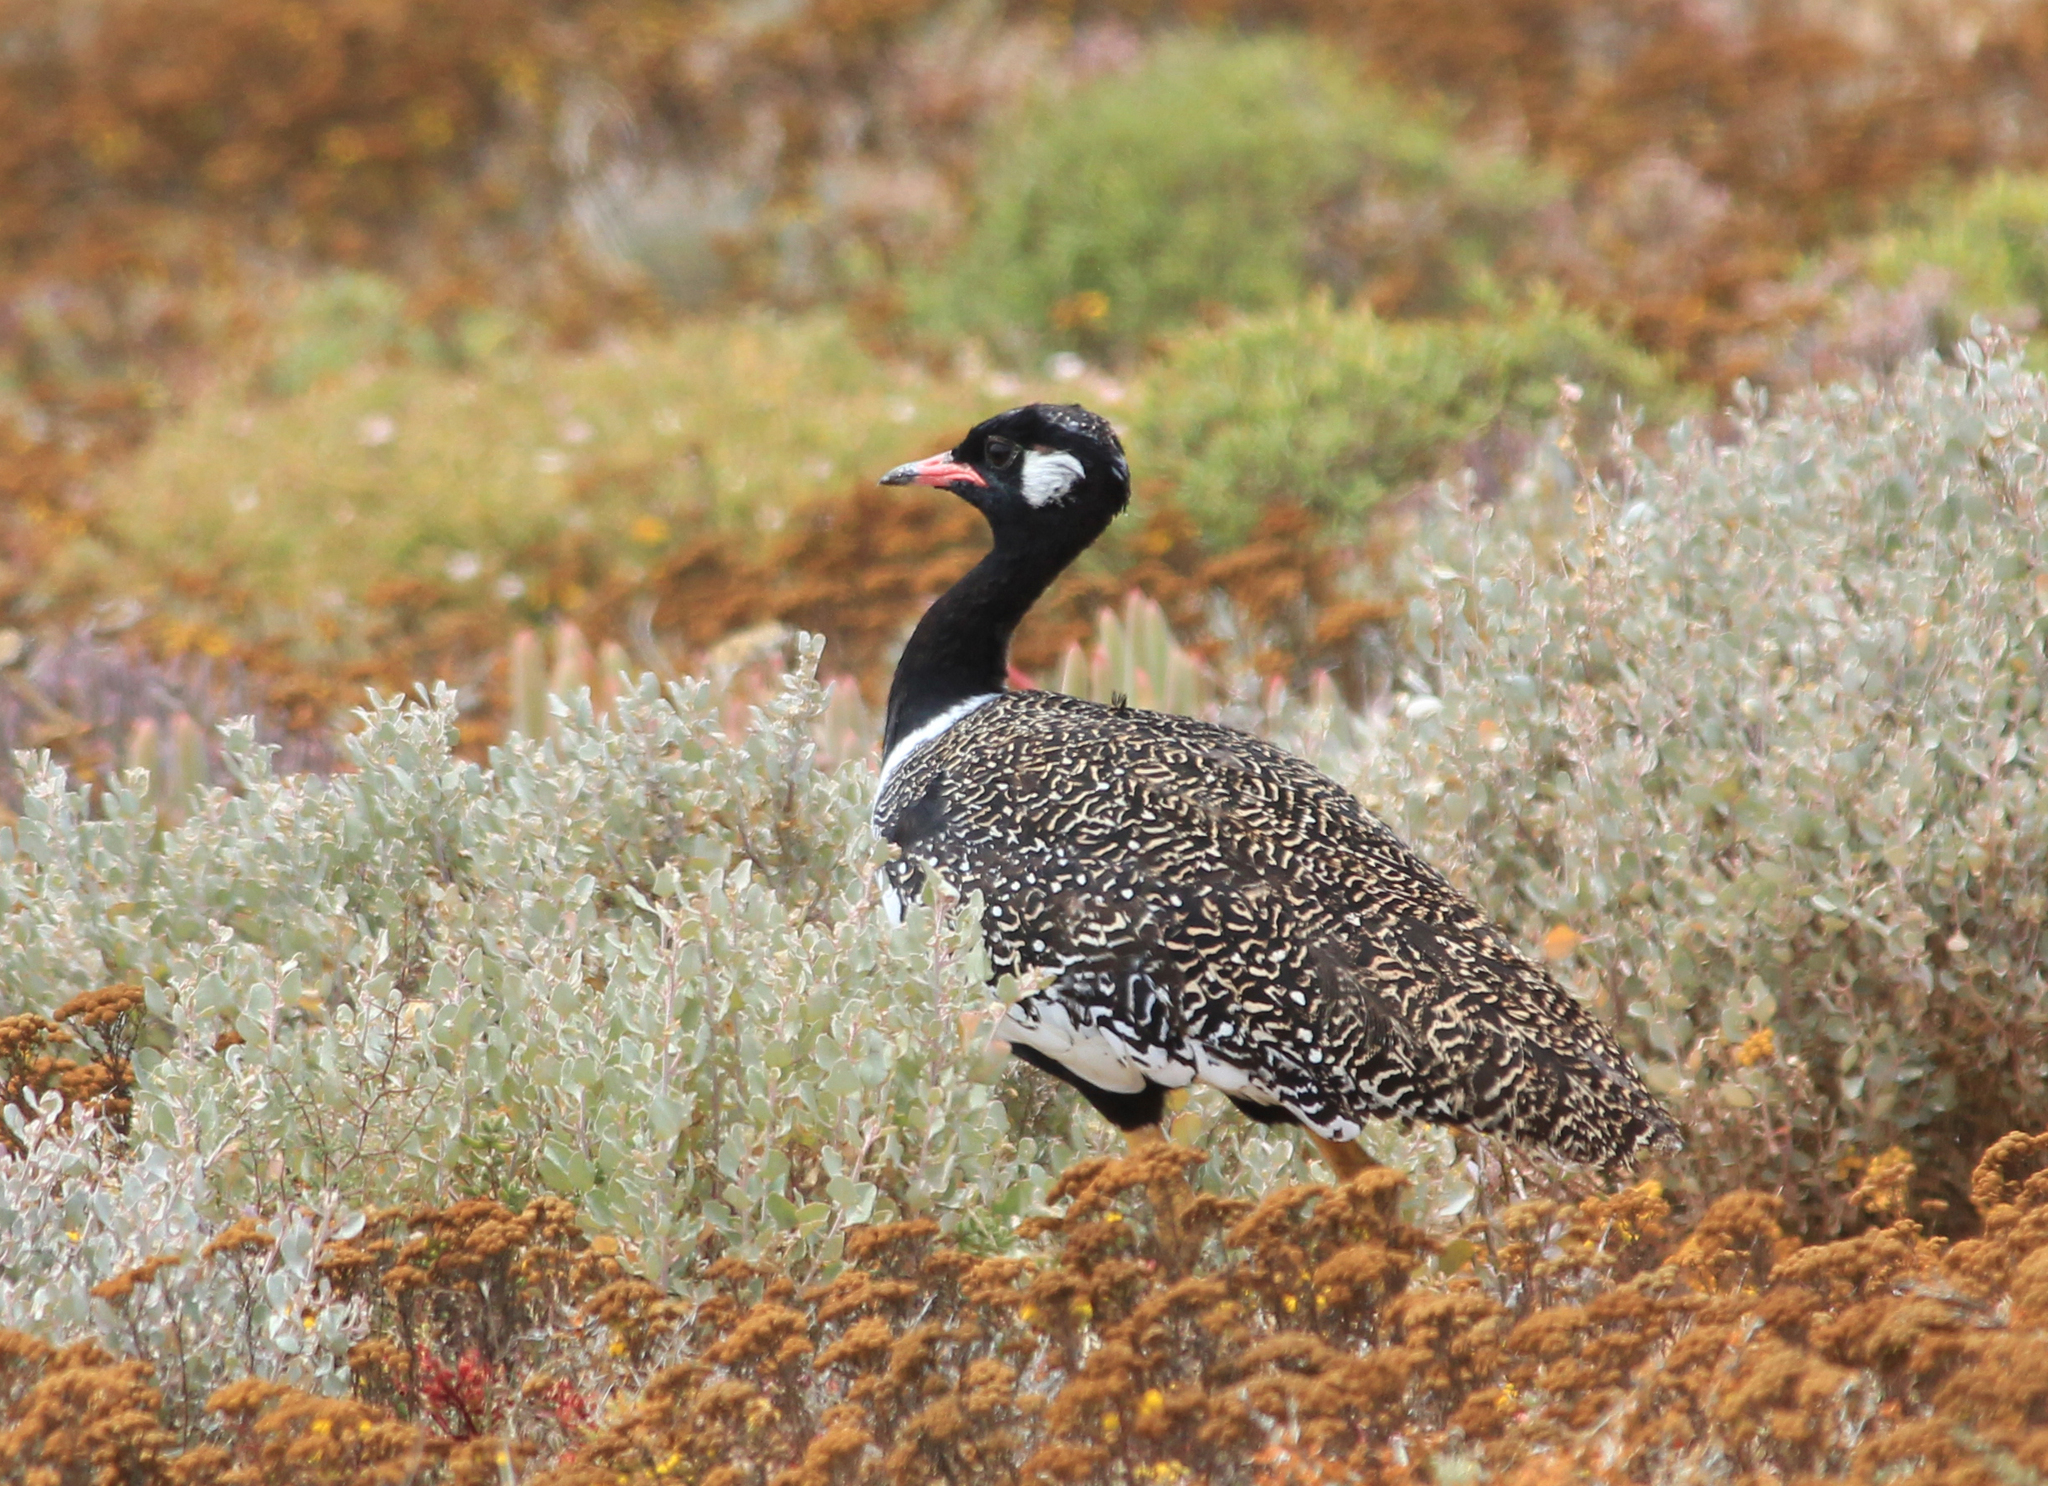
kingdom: Animalia
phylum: Chordata
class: Aves
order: Otidiformes
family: Otididae
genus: Afrotis
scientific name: Afrotis afra
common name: Southern black korhaan
